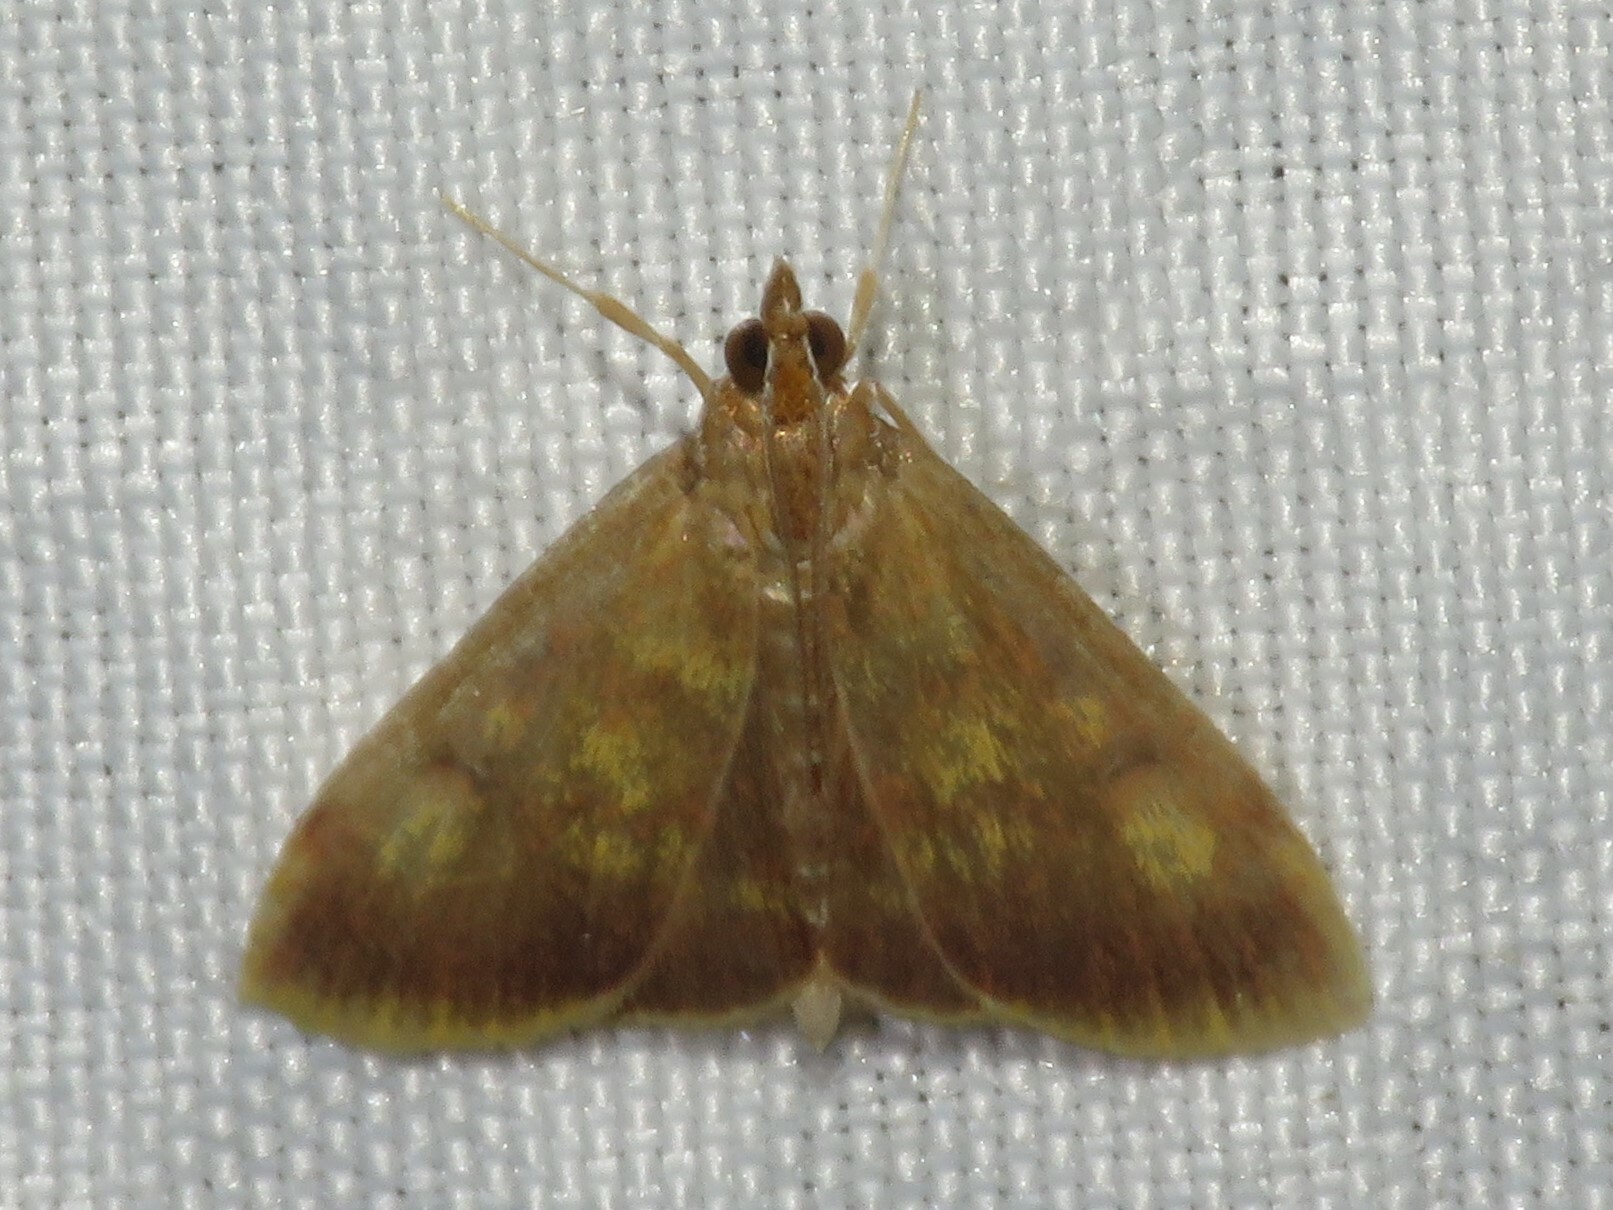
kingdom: Animalia
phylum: Arthropoda
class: Insecta
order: Lepidoptera
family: Crambidae
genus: Pyrausta
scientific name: Pyrausta acrionalis
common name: Mint-loving pyrausta moth
